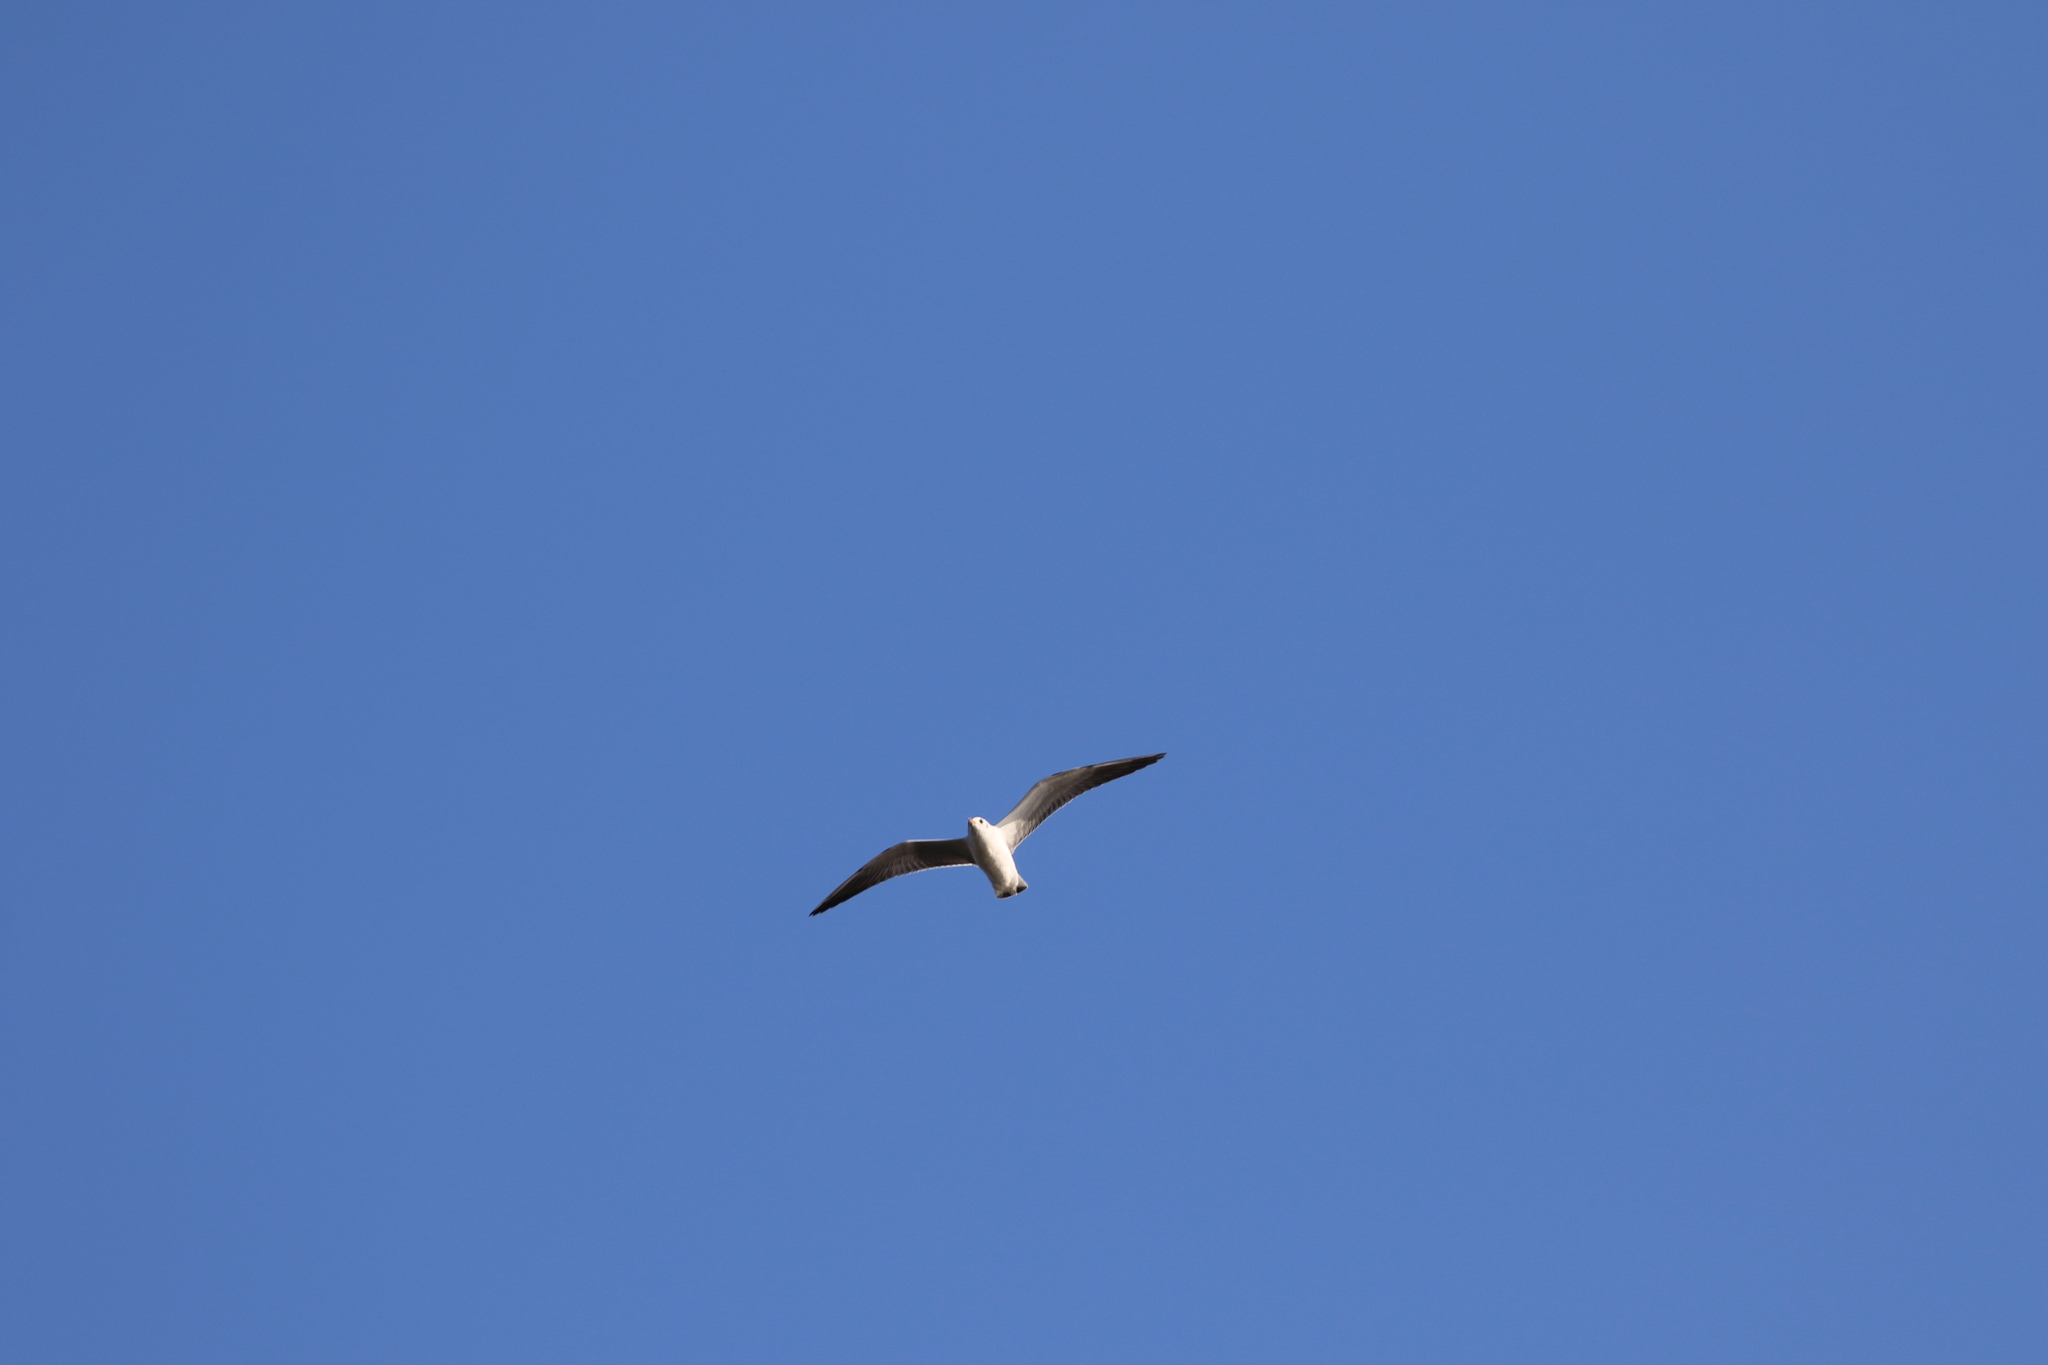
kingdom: Animalia
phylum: Chordata
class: Aves
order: Charadriiformes
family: Laridae
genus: Chroicocephalus
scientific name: Chroicocephalus ridibundus
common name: Black-headed gull
